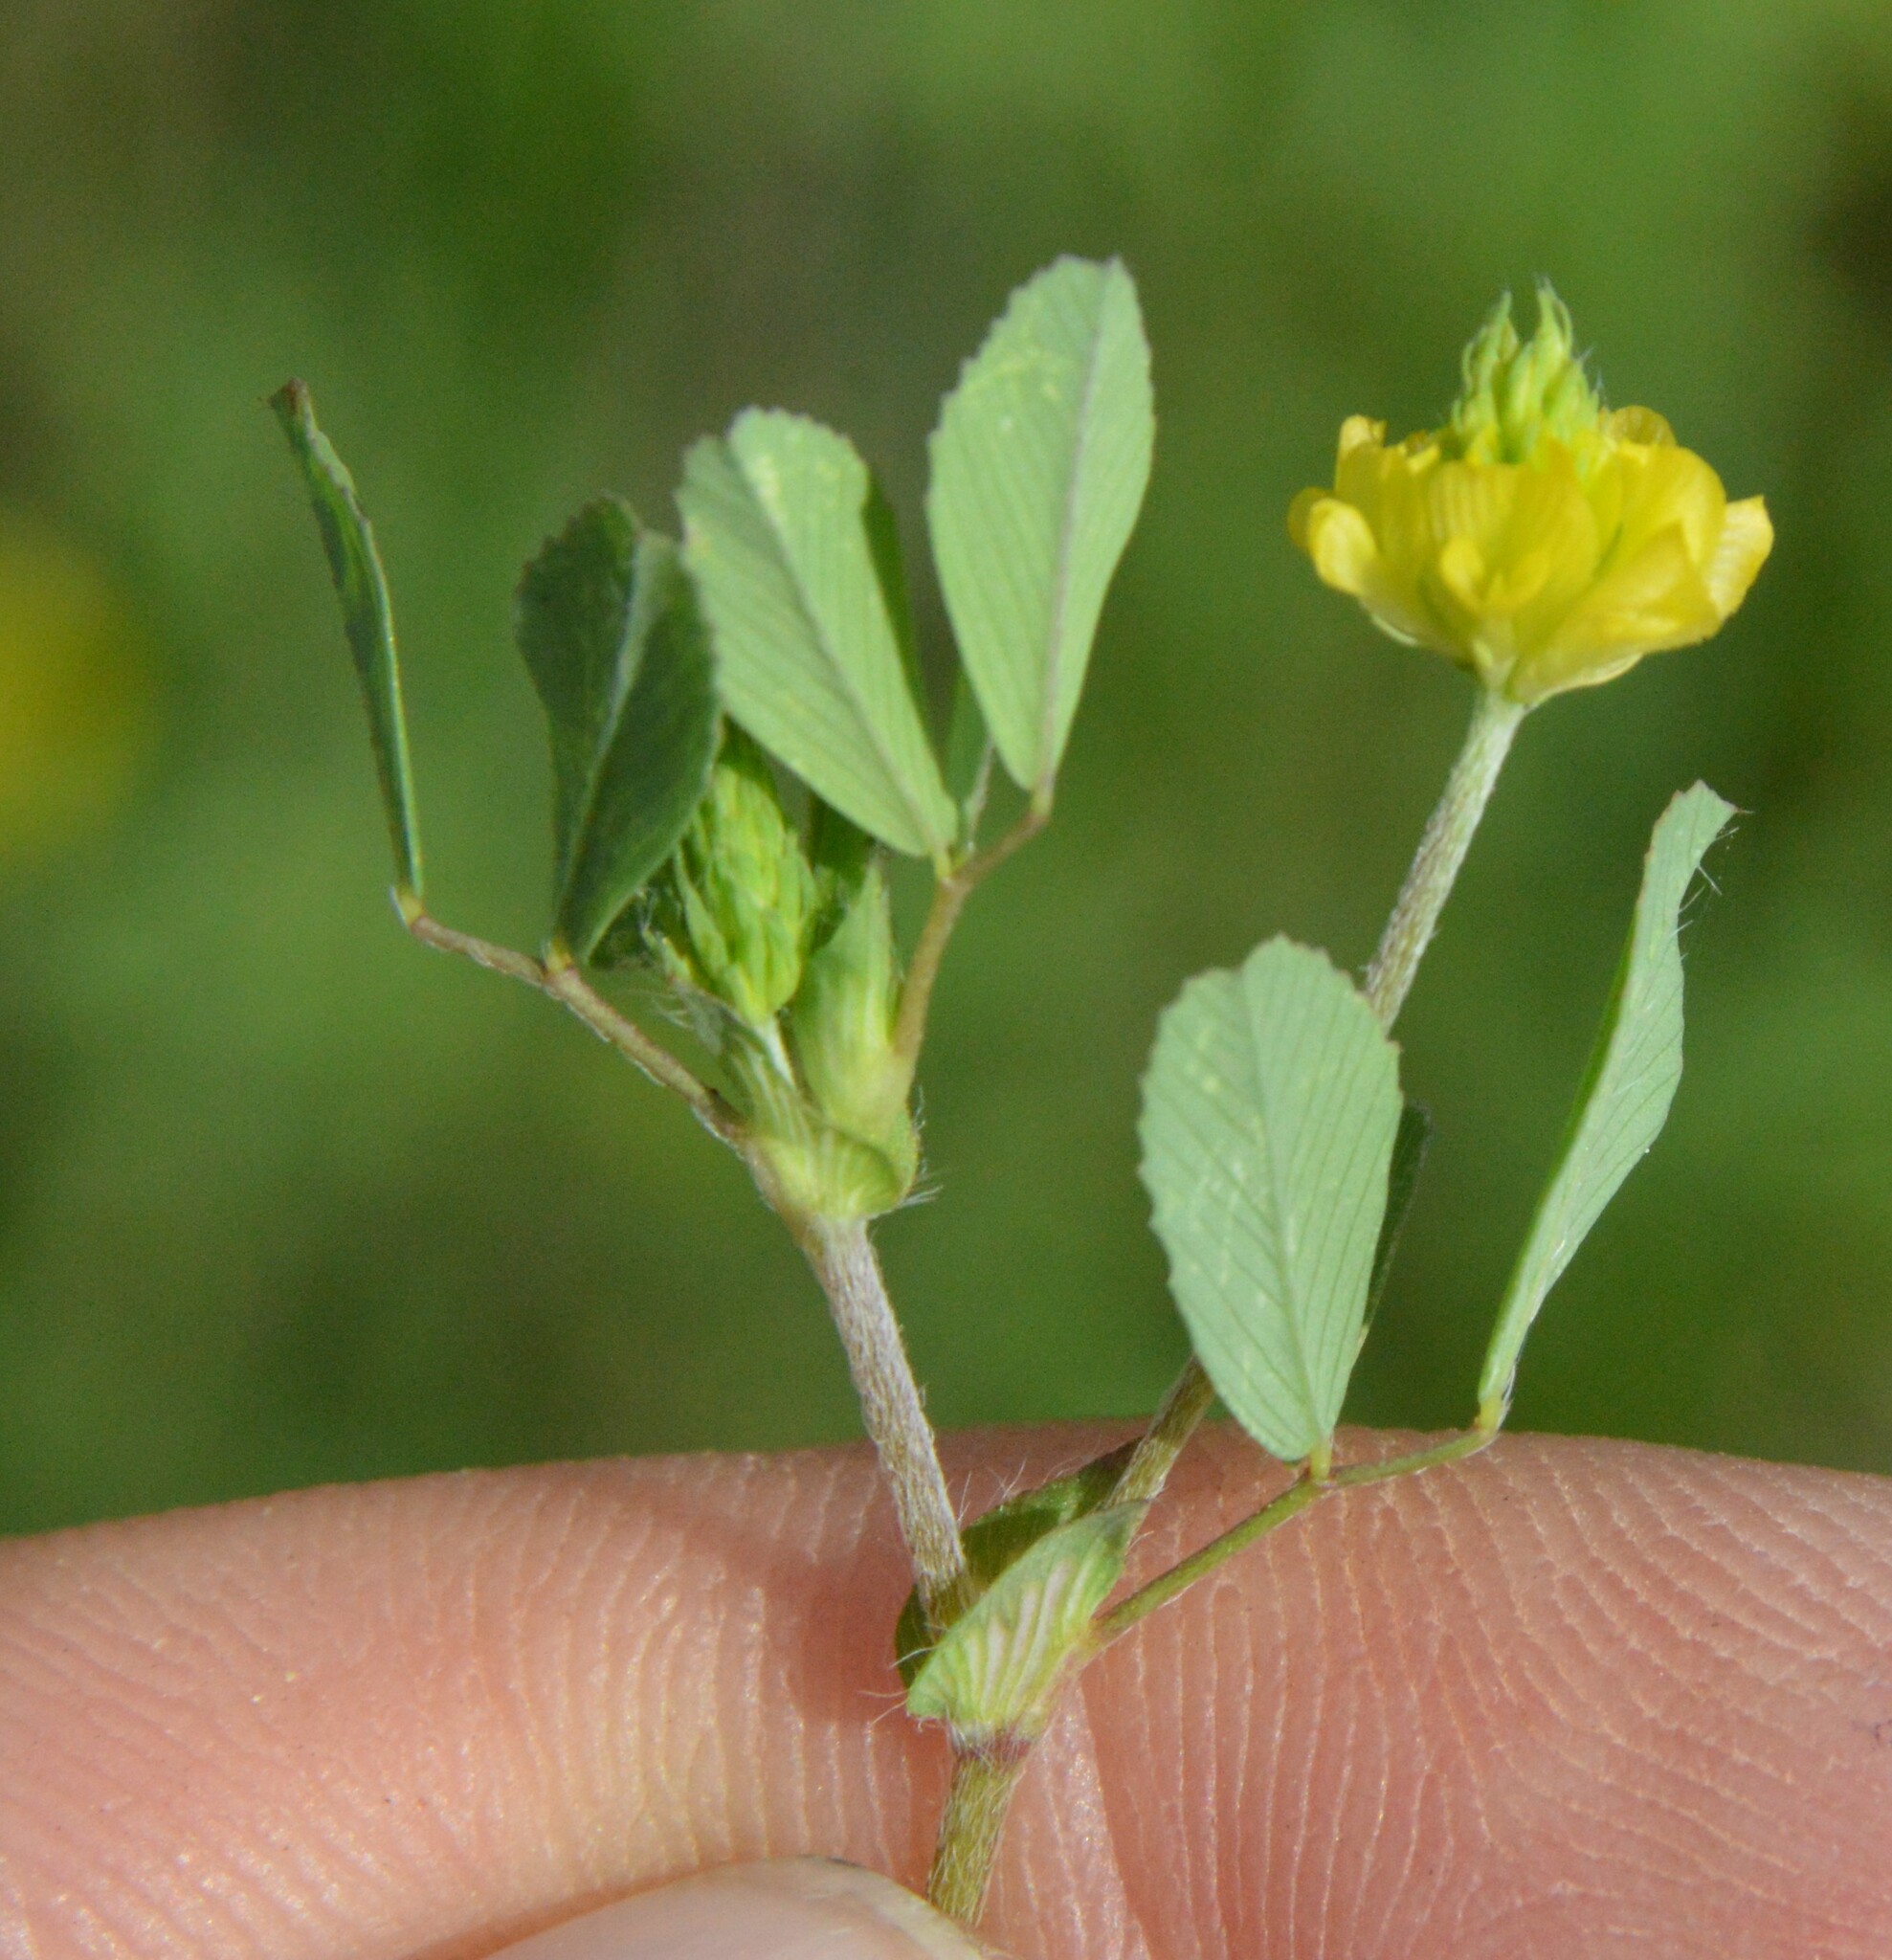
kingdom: Plantae
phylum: Tracheophyta
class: Magnoliopsida
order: Fabales
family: Fabaceae
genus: Trifolium
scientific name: Trifolium campestre
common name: Field clover
